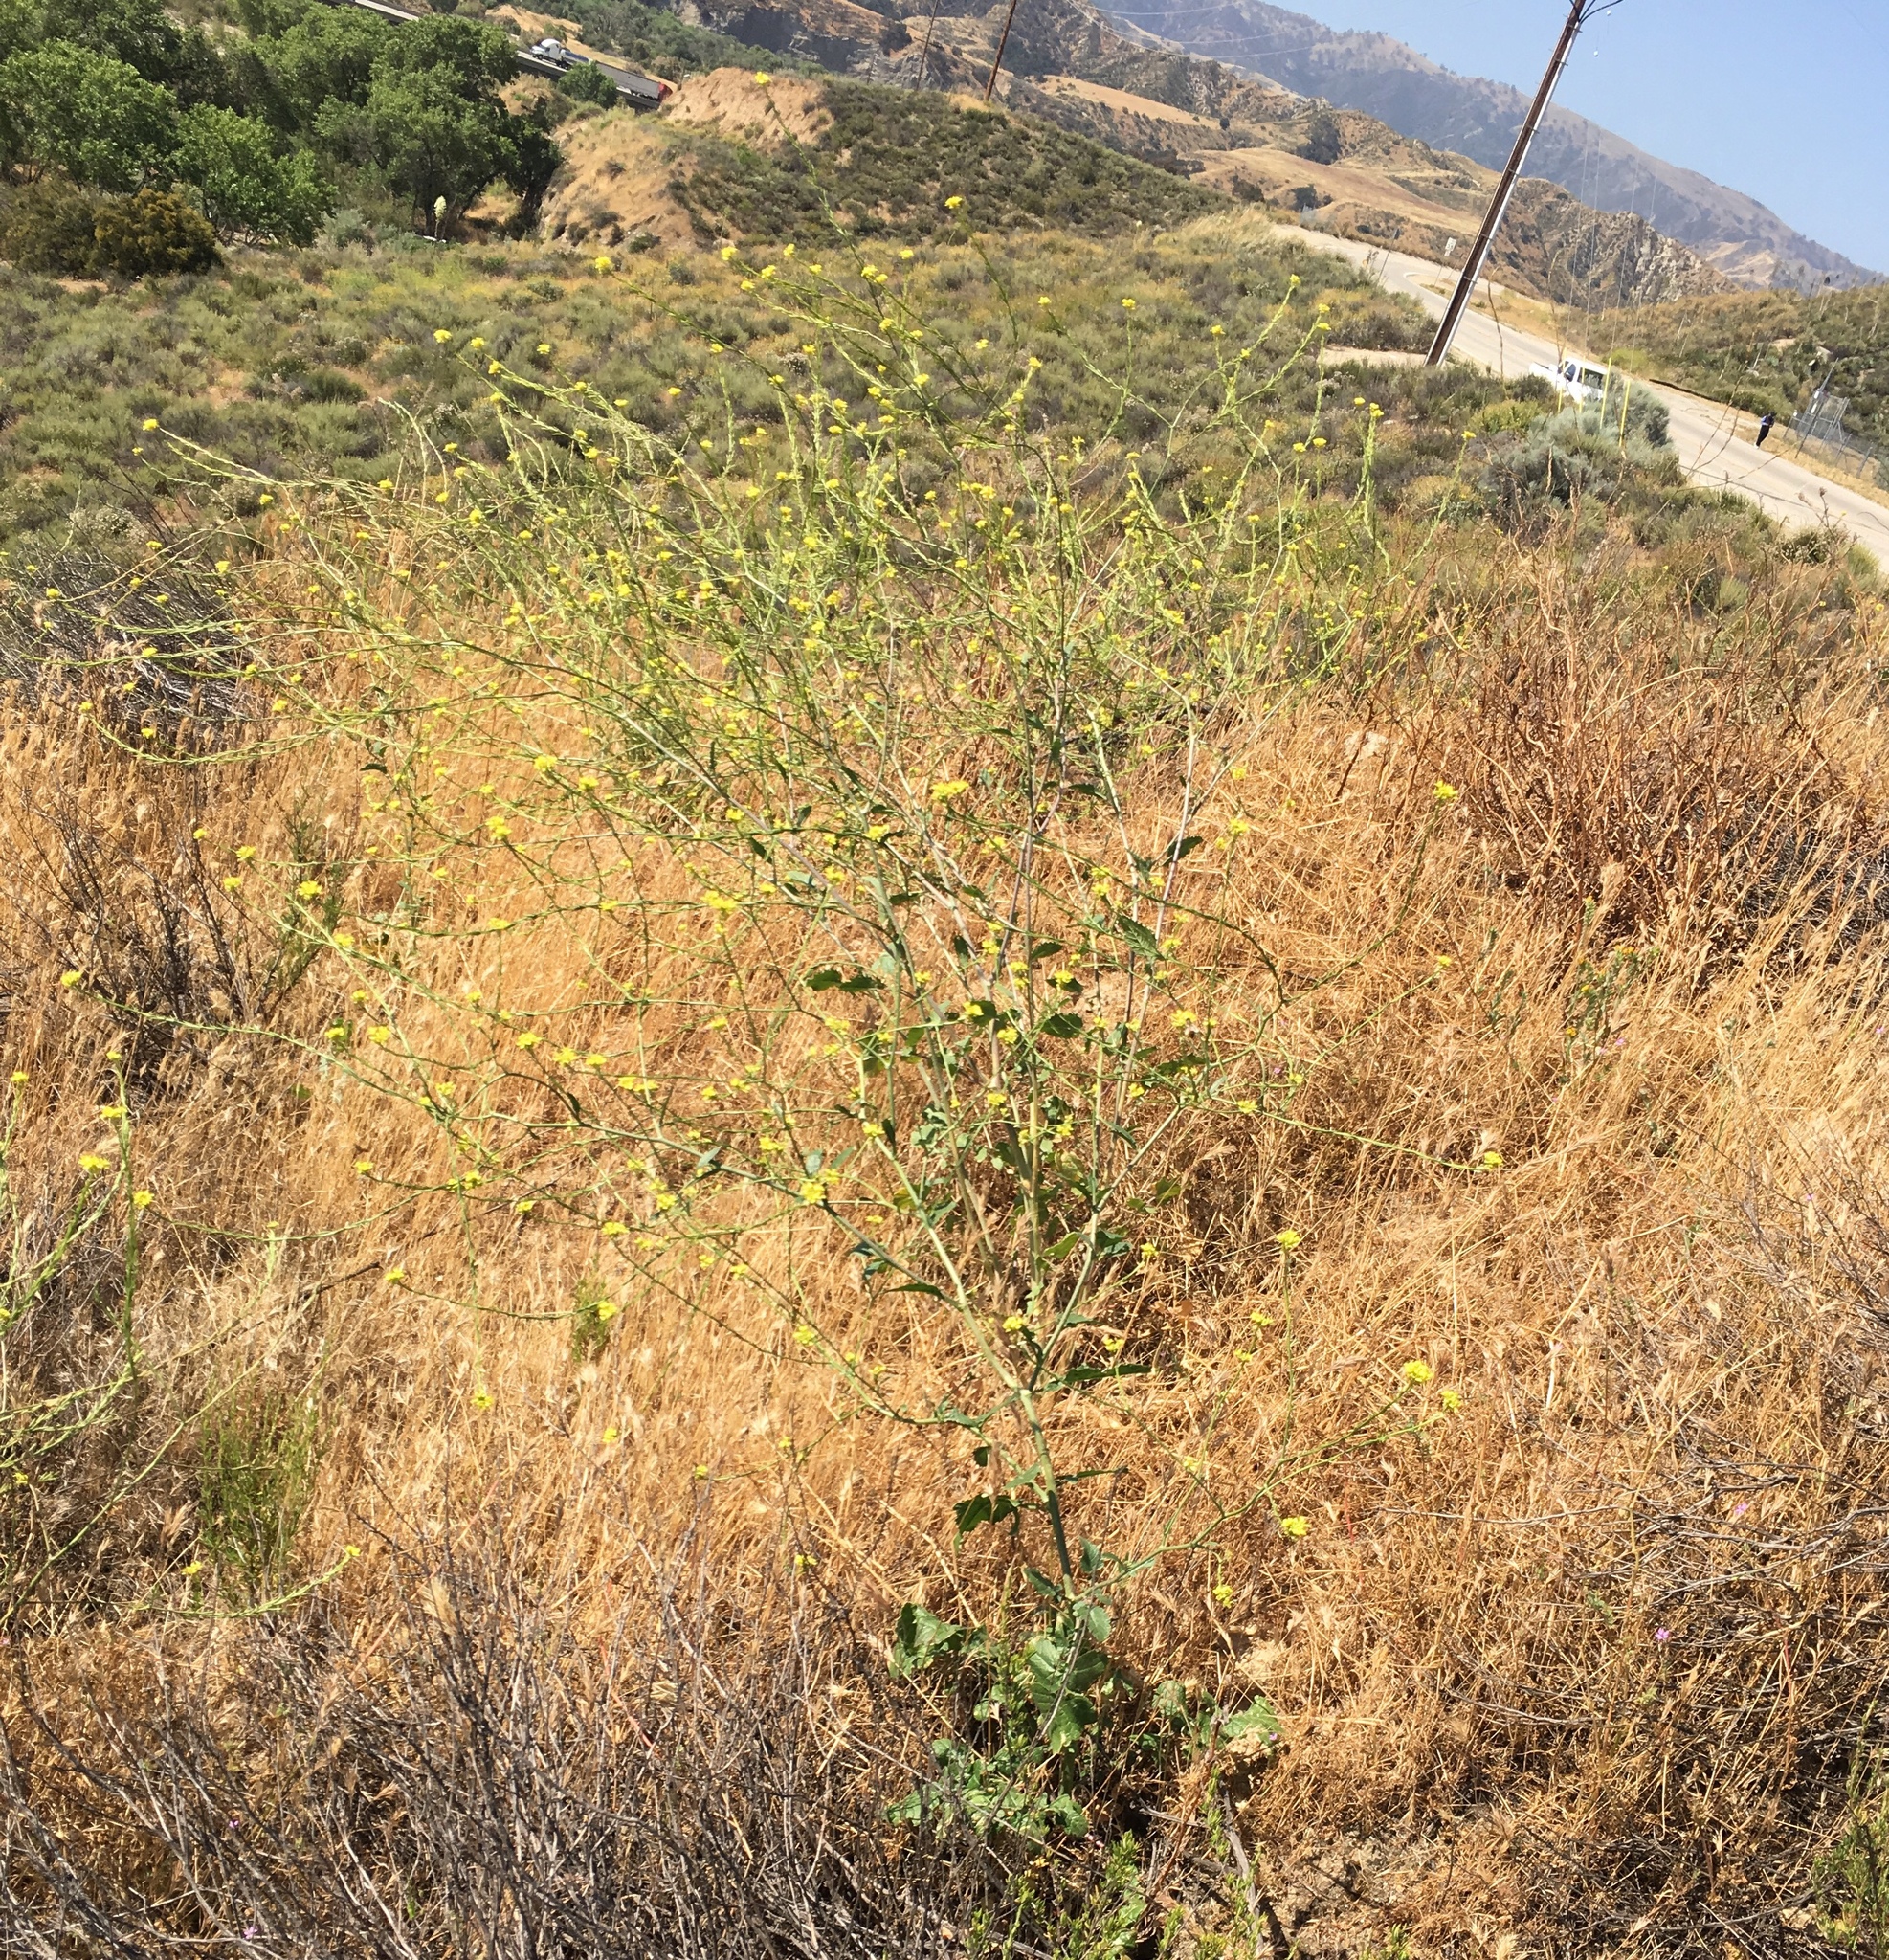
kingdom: Plantae
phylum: Tracheophyta
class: Magnoliopsida
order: Brassicales
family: Brassicaceae
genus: Hirschfeldia
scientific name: Hirschfeldia incana
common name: Hoary mustard
